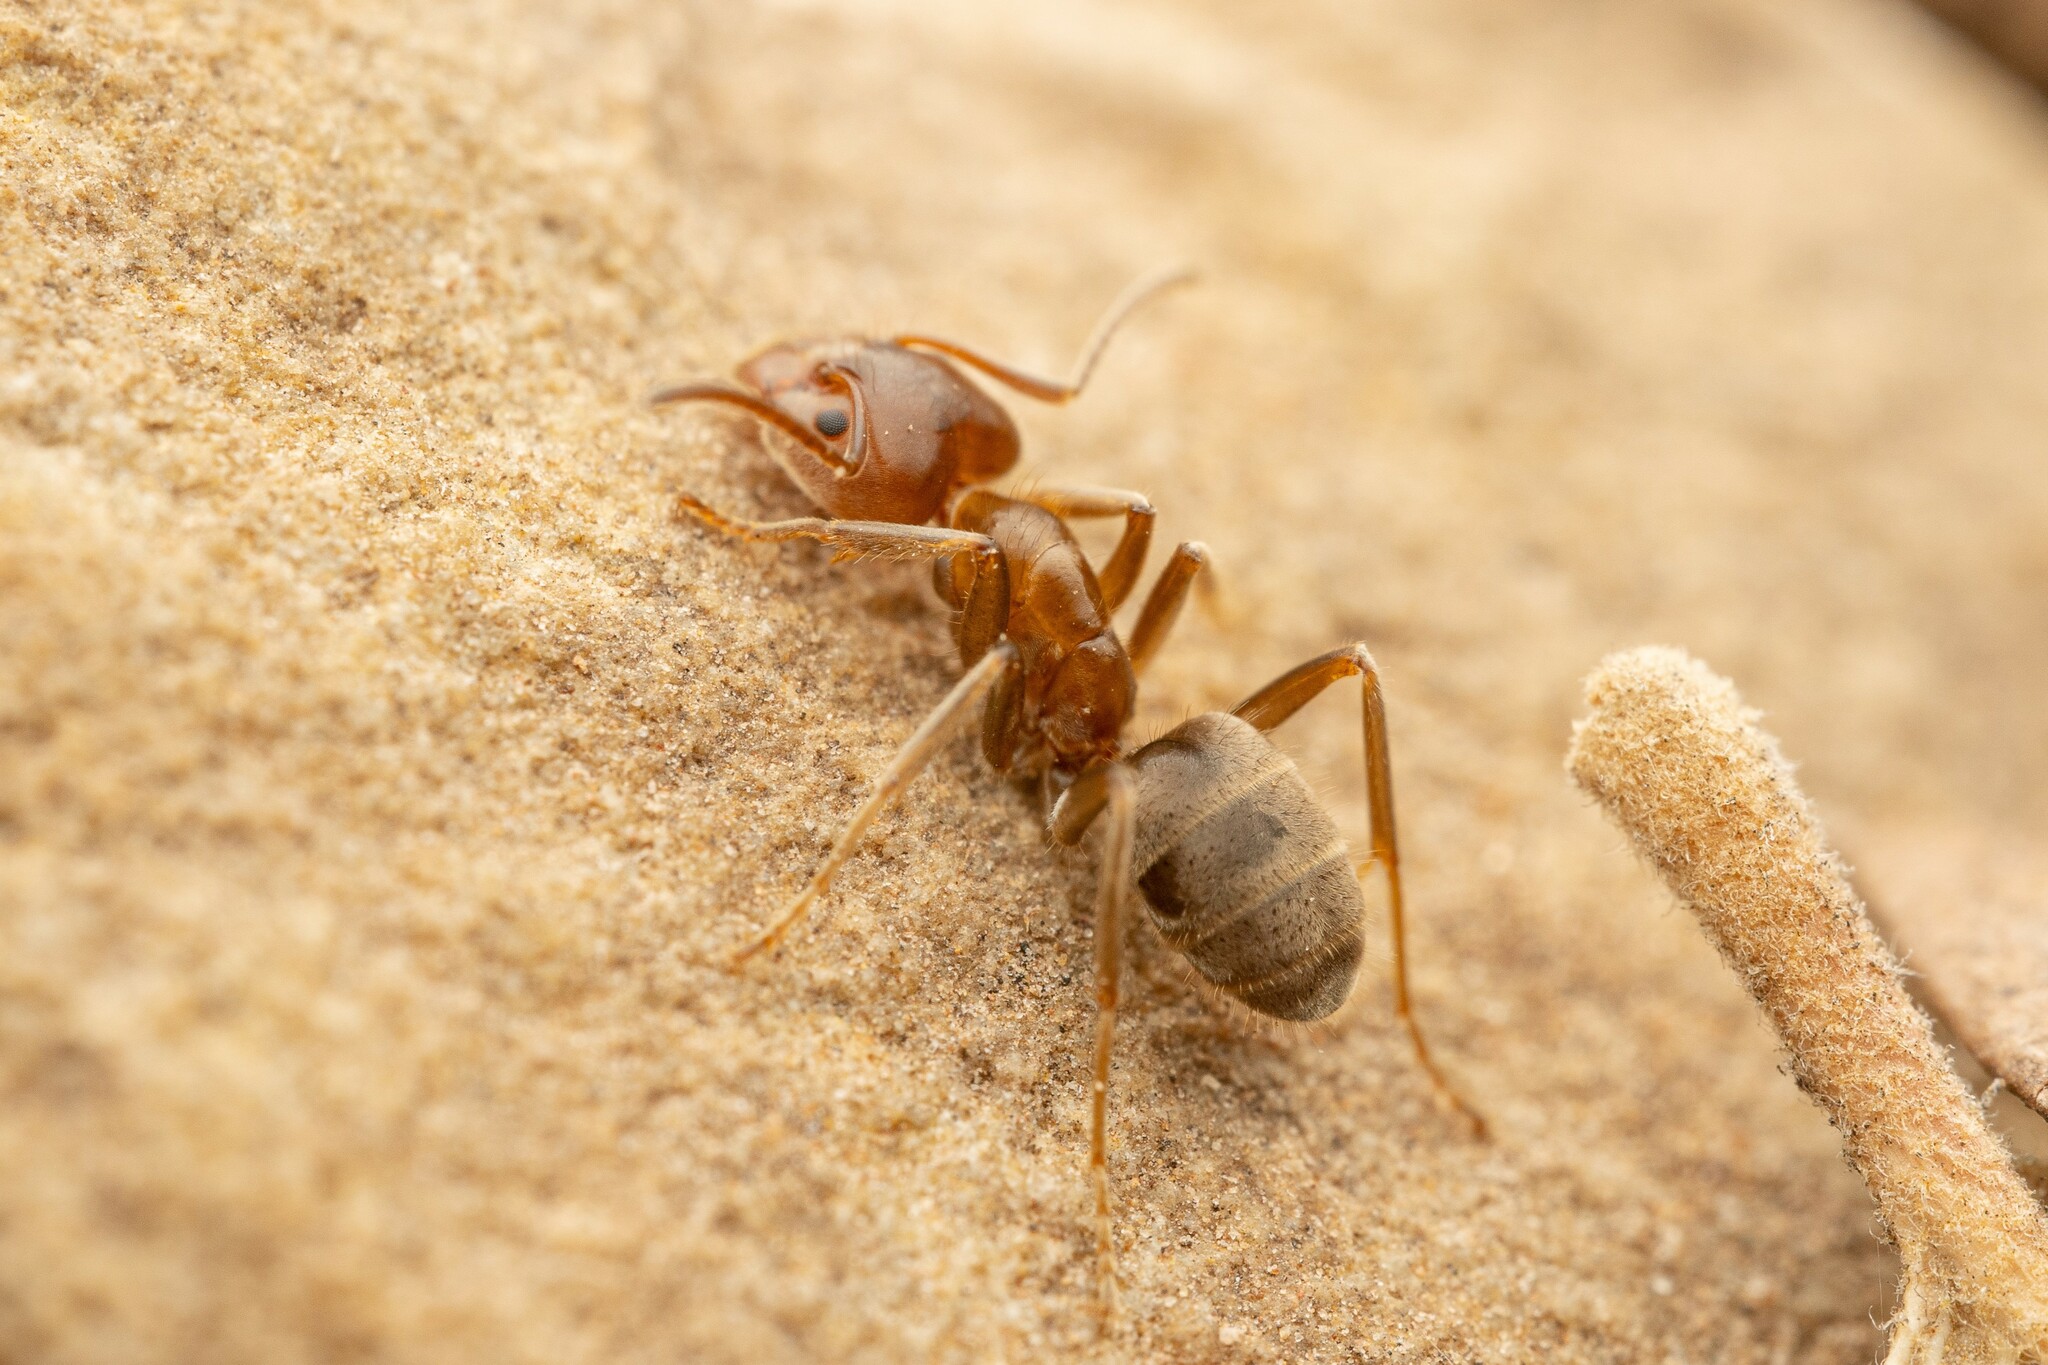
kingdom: Animalia
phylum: Arthropoda
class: Insecta
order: Hymenoptera
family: Formicidae
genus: Liometopum
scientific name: Liometopum apiculatum
